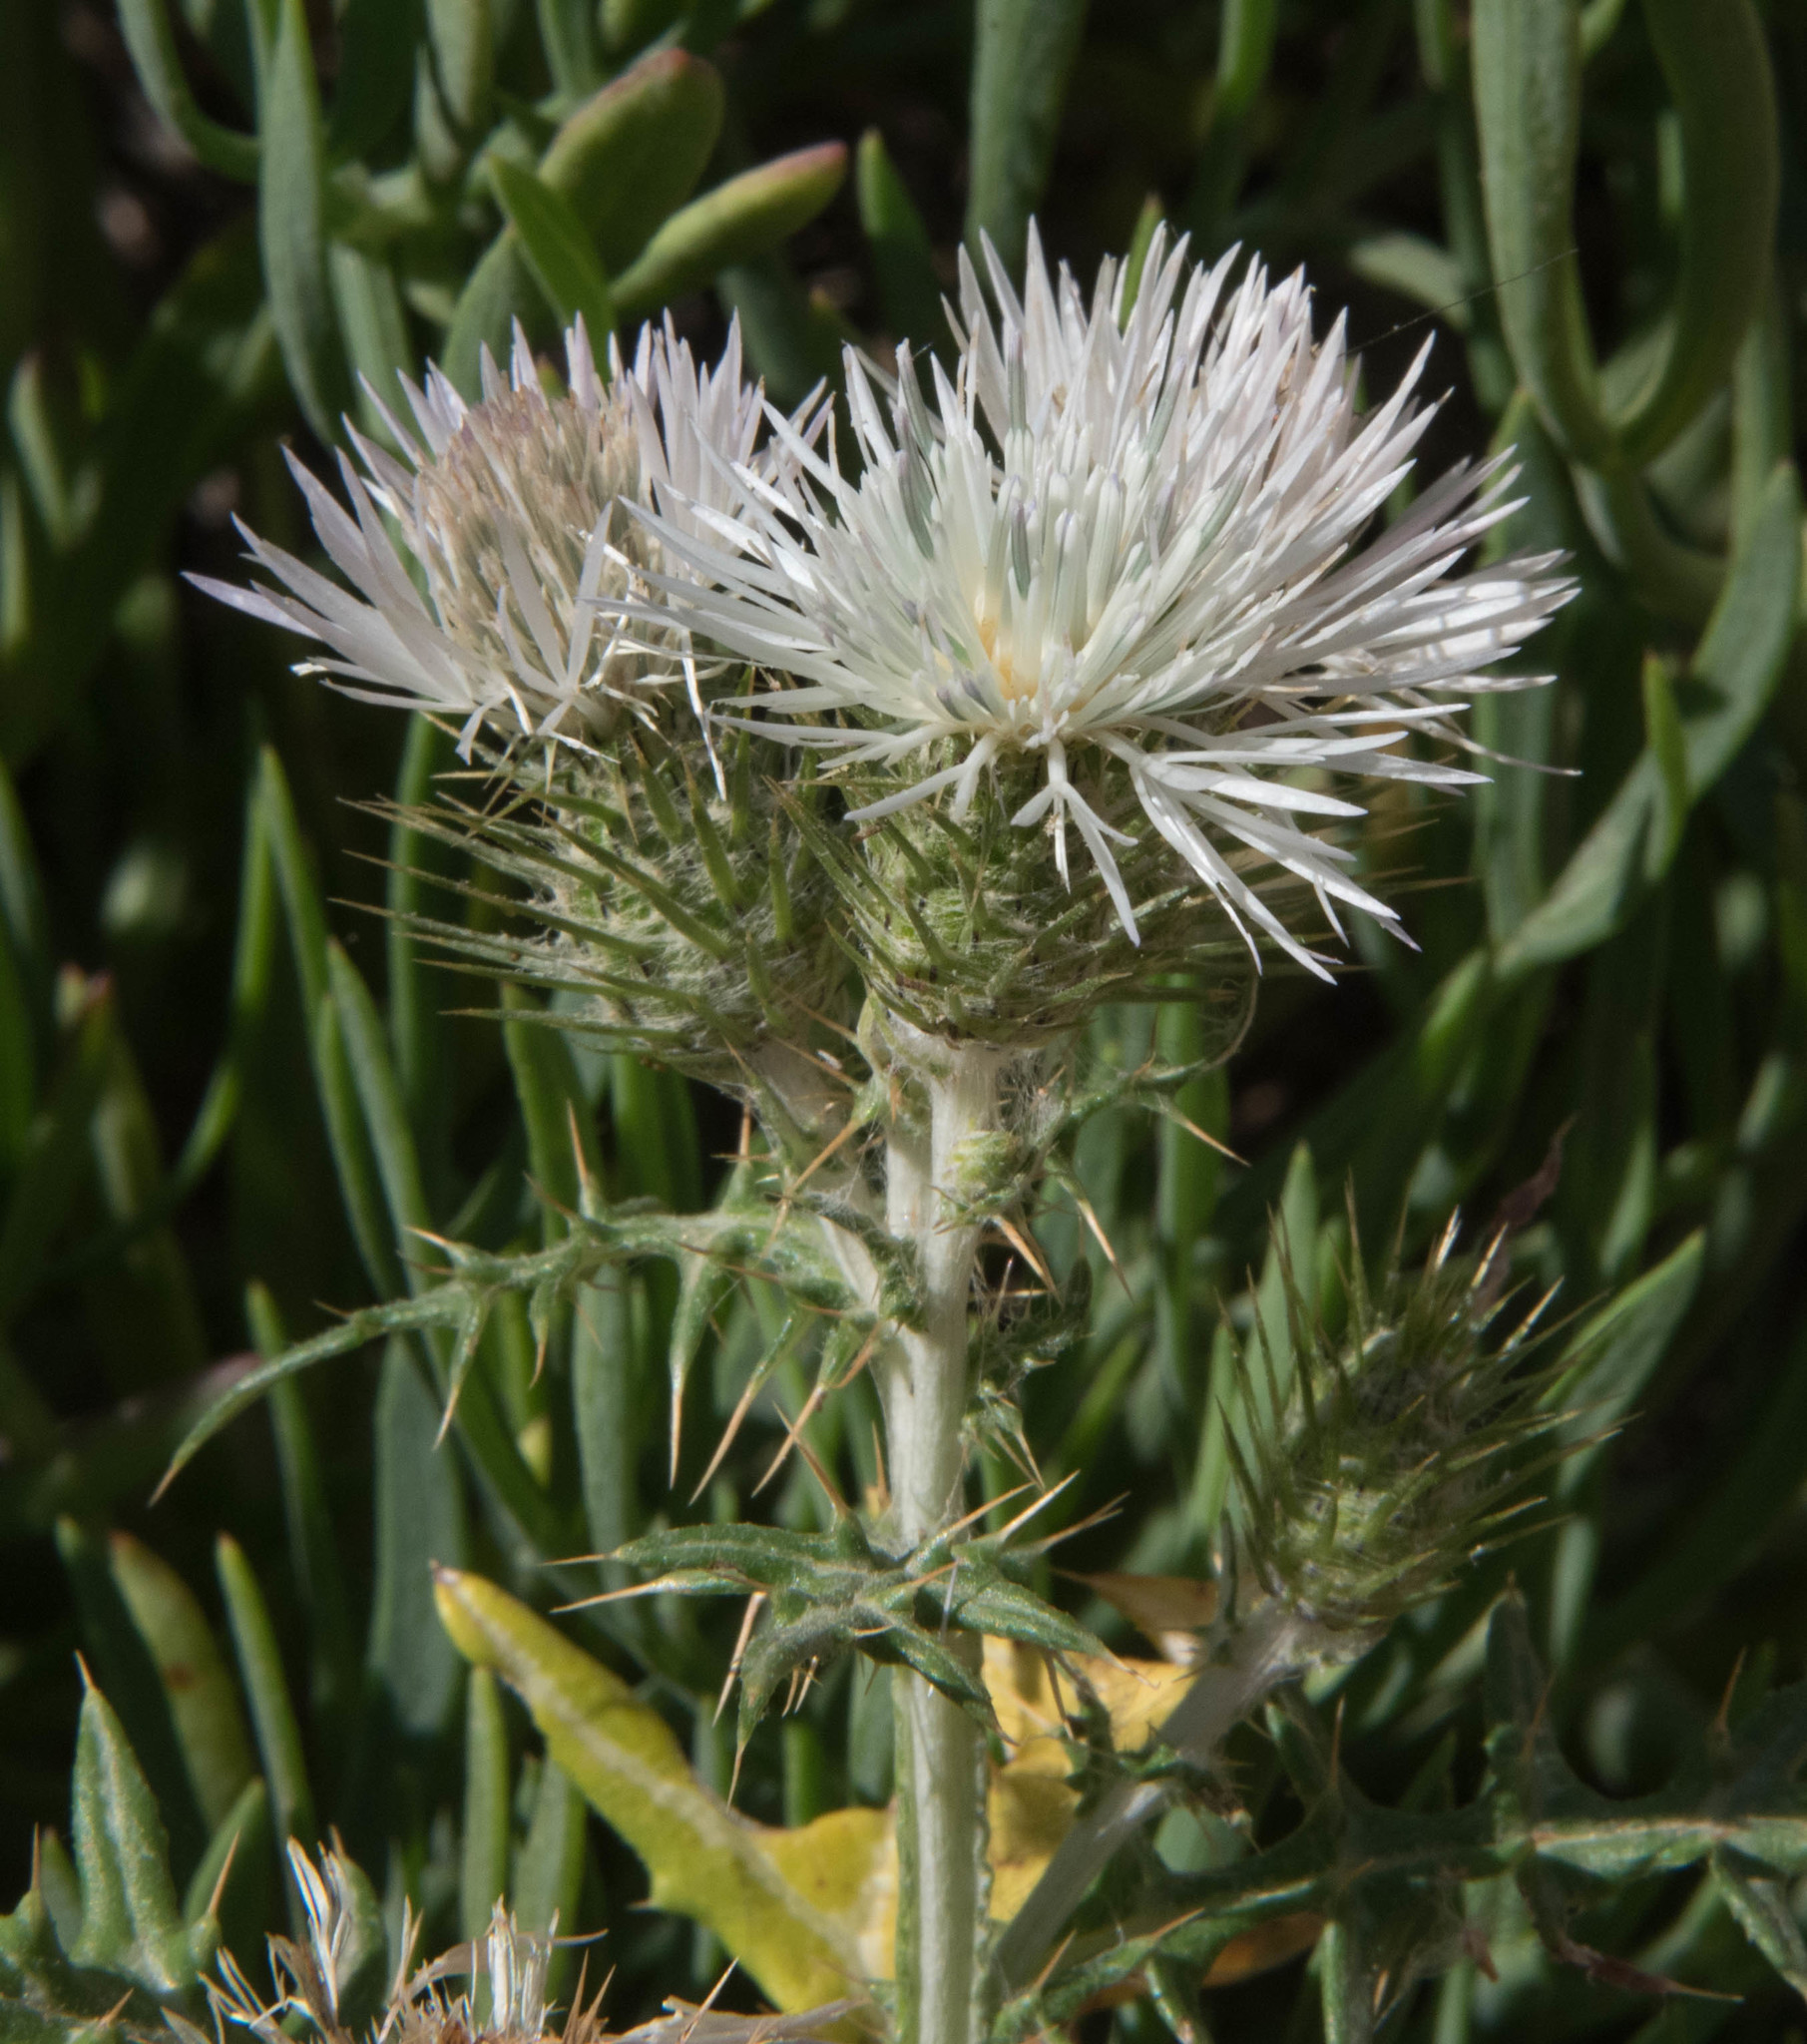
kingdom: Plantae
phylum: Tracheophyta
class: Magnoliopsida
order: Asterales
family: Asteraceae
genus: Galactites
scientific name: Galactites tomentosa
